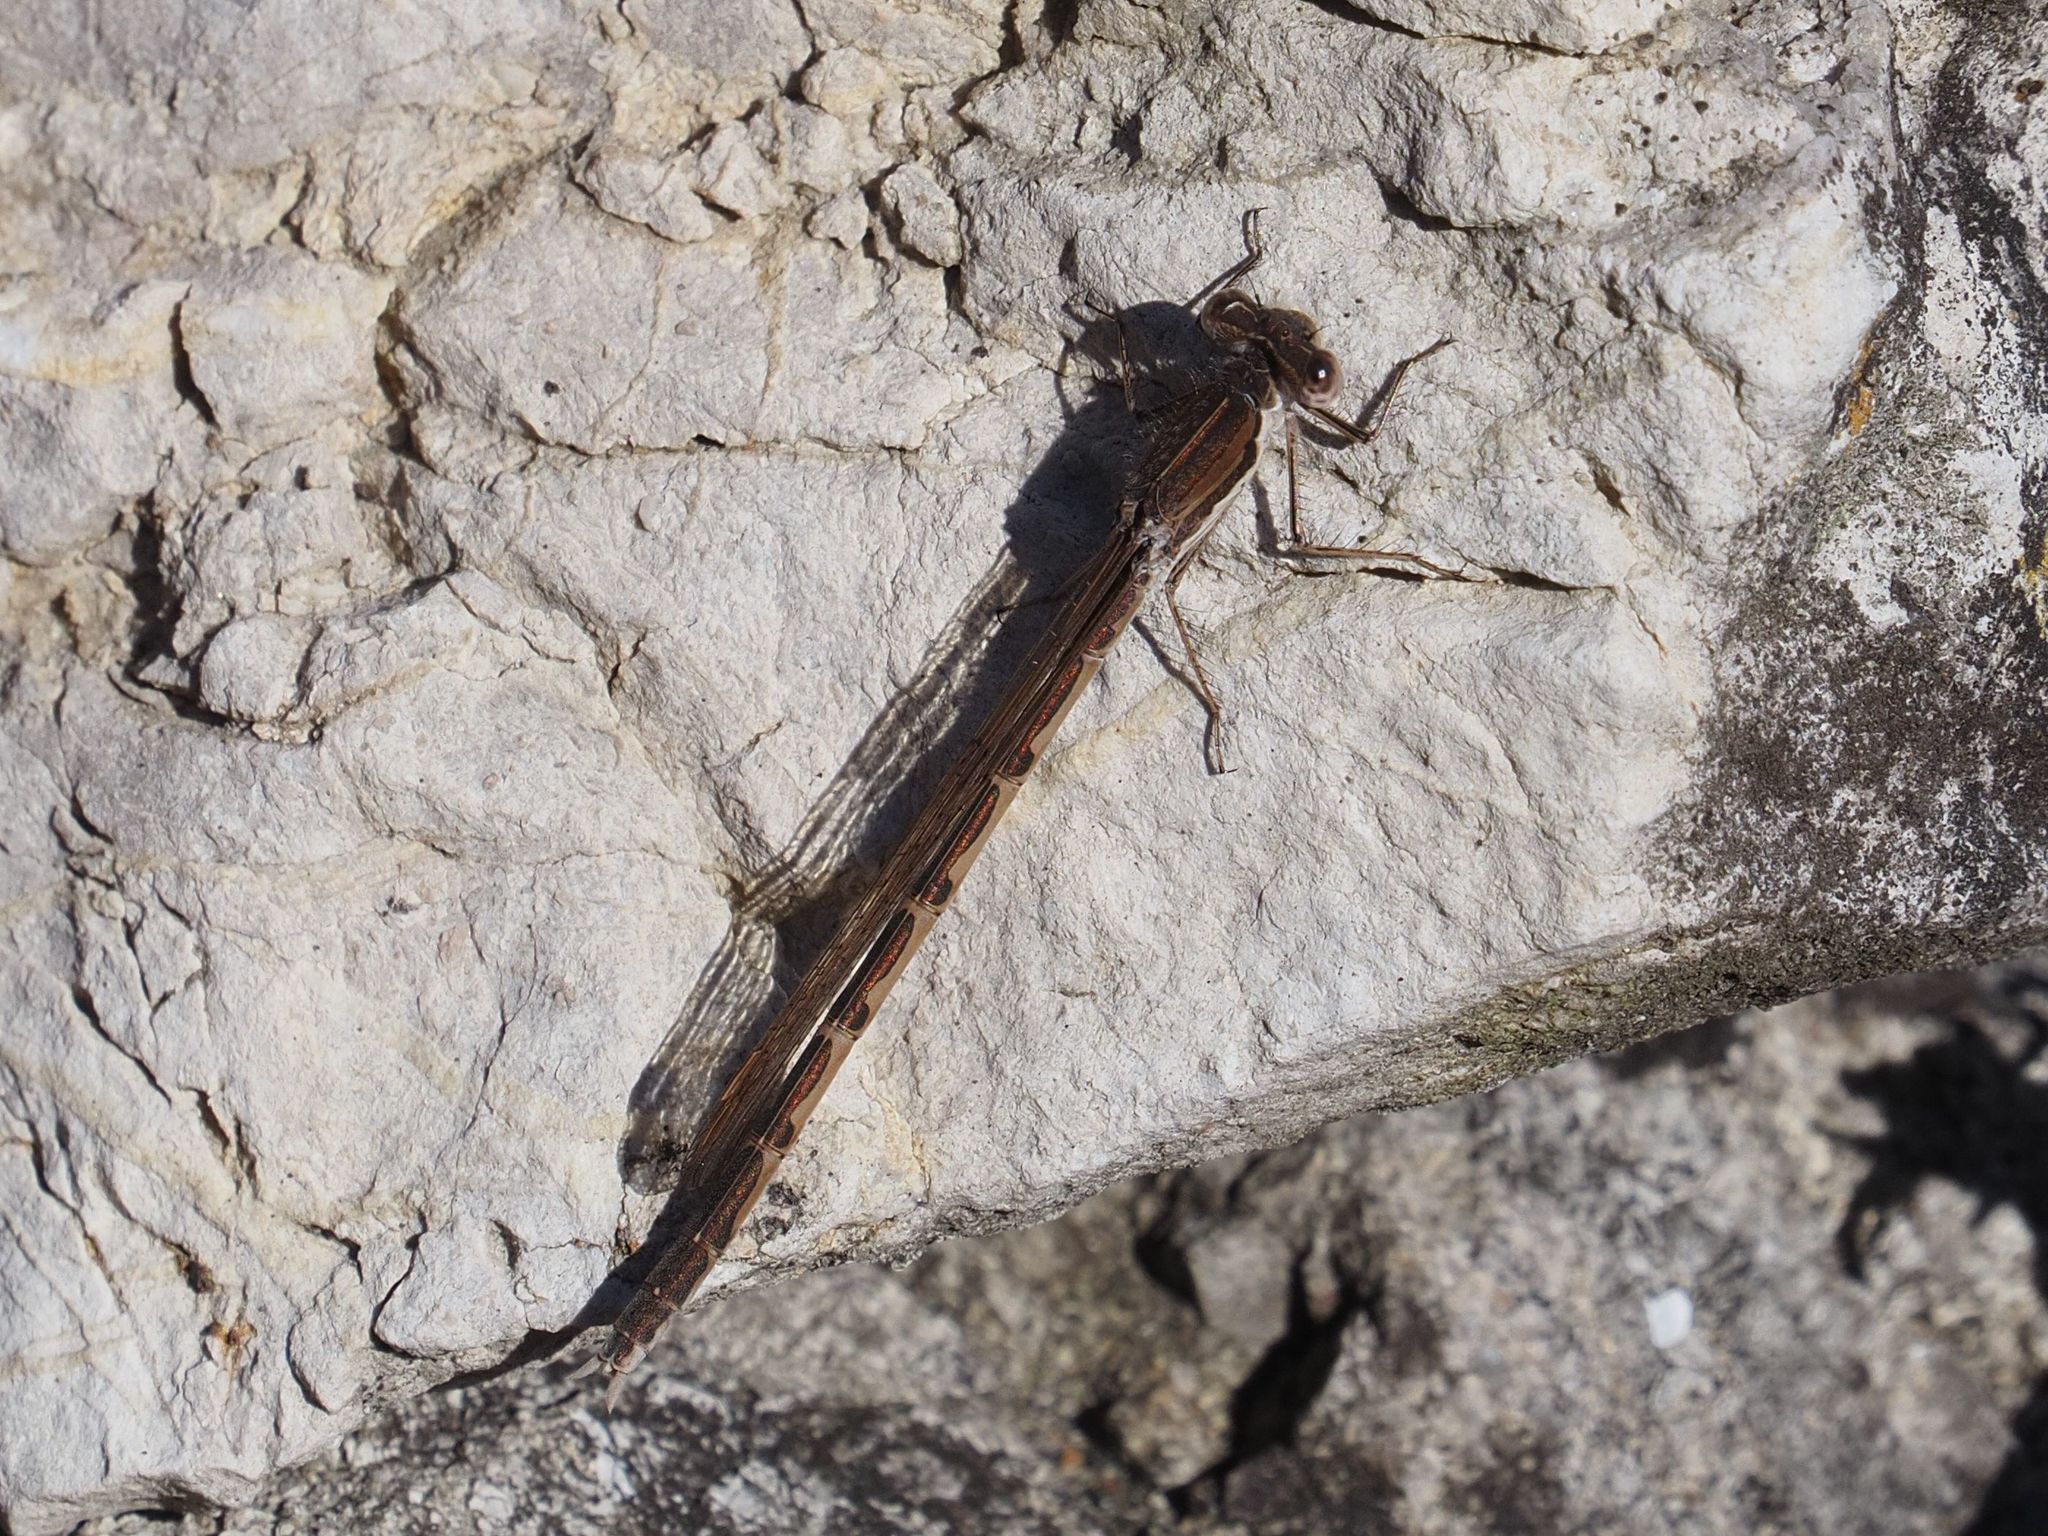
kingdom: Animalia
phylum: Arthropoda
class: Insecta
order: Odonata
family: Lestidae
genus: Sympecma
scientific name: Sympecma fusca
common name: Common winter damsel
